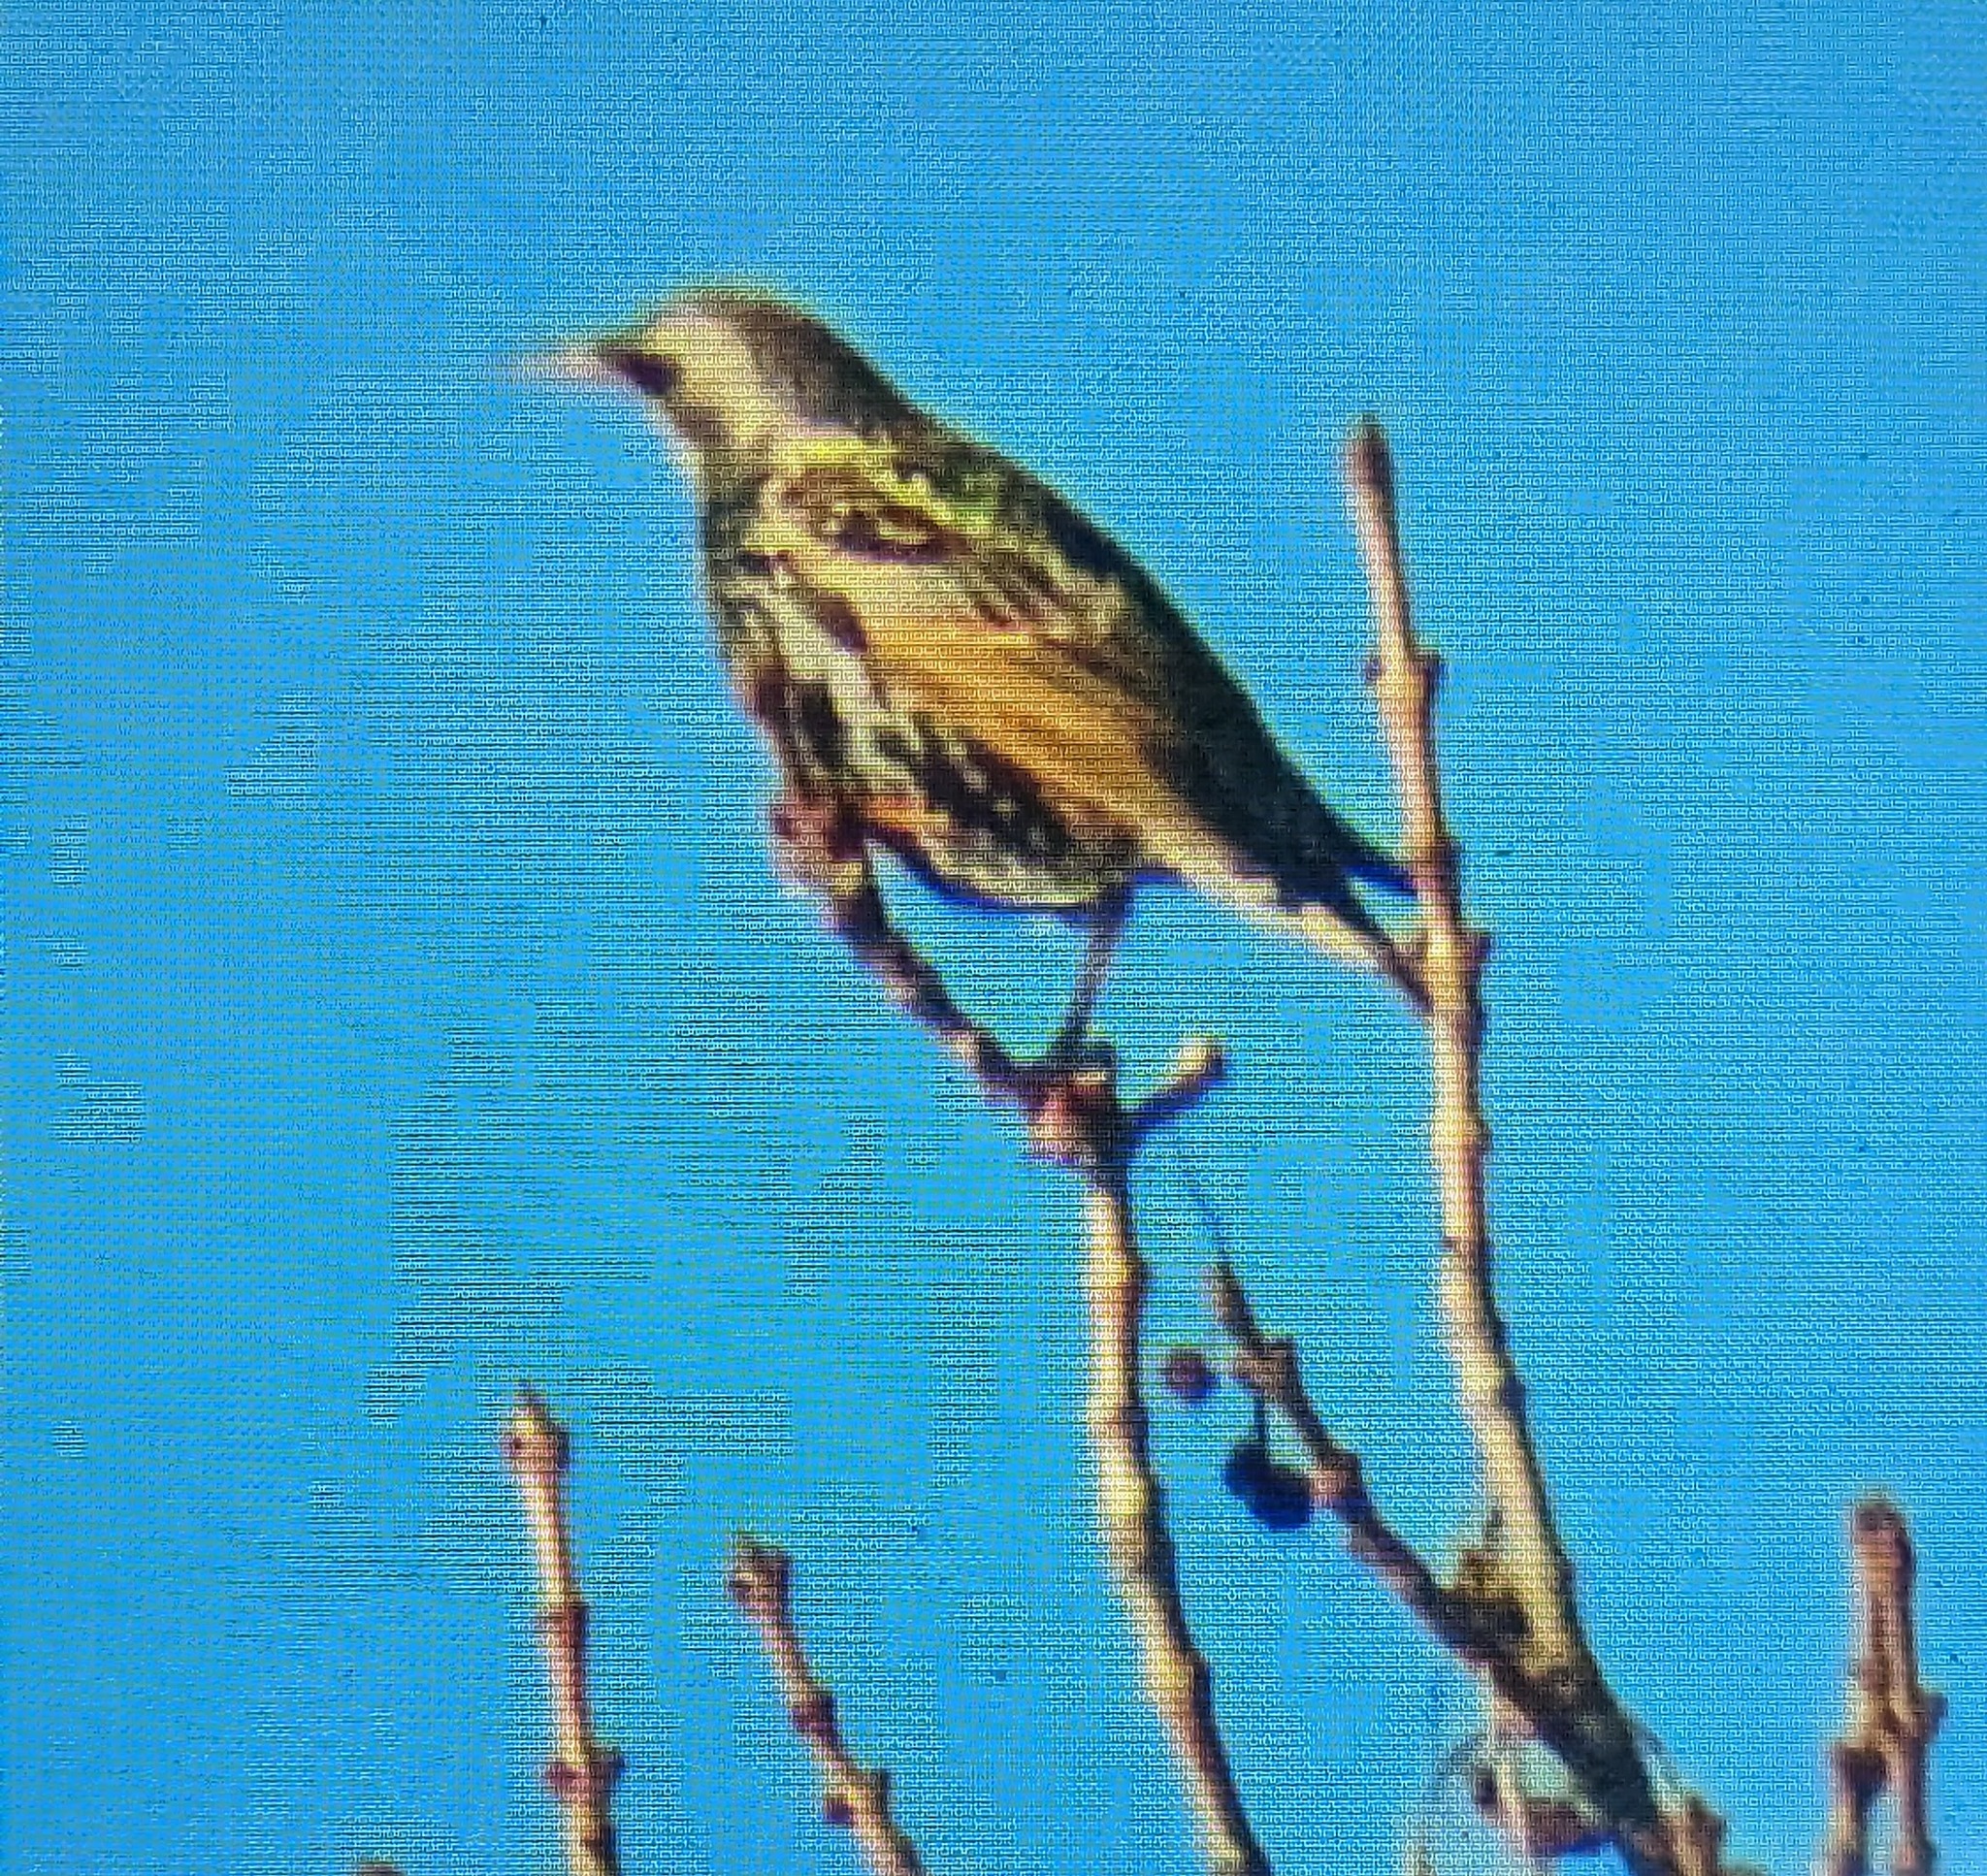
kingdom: Animalia
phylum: Chordata
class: Aves
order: Passeriformes
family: Sturnidae
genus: Sturnus
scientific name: Sturnus vulgaris
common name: Common starling
